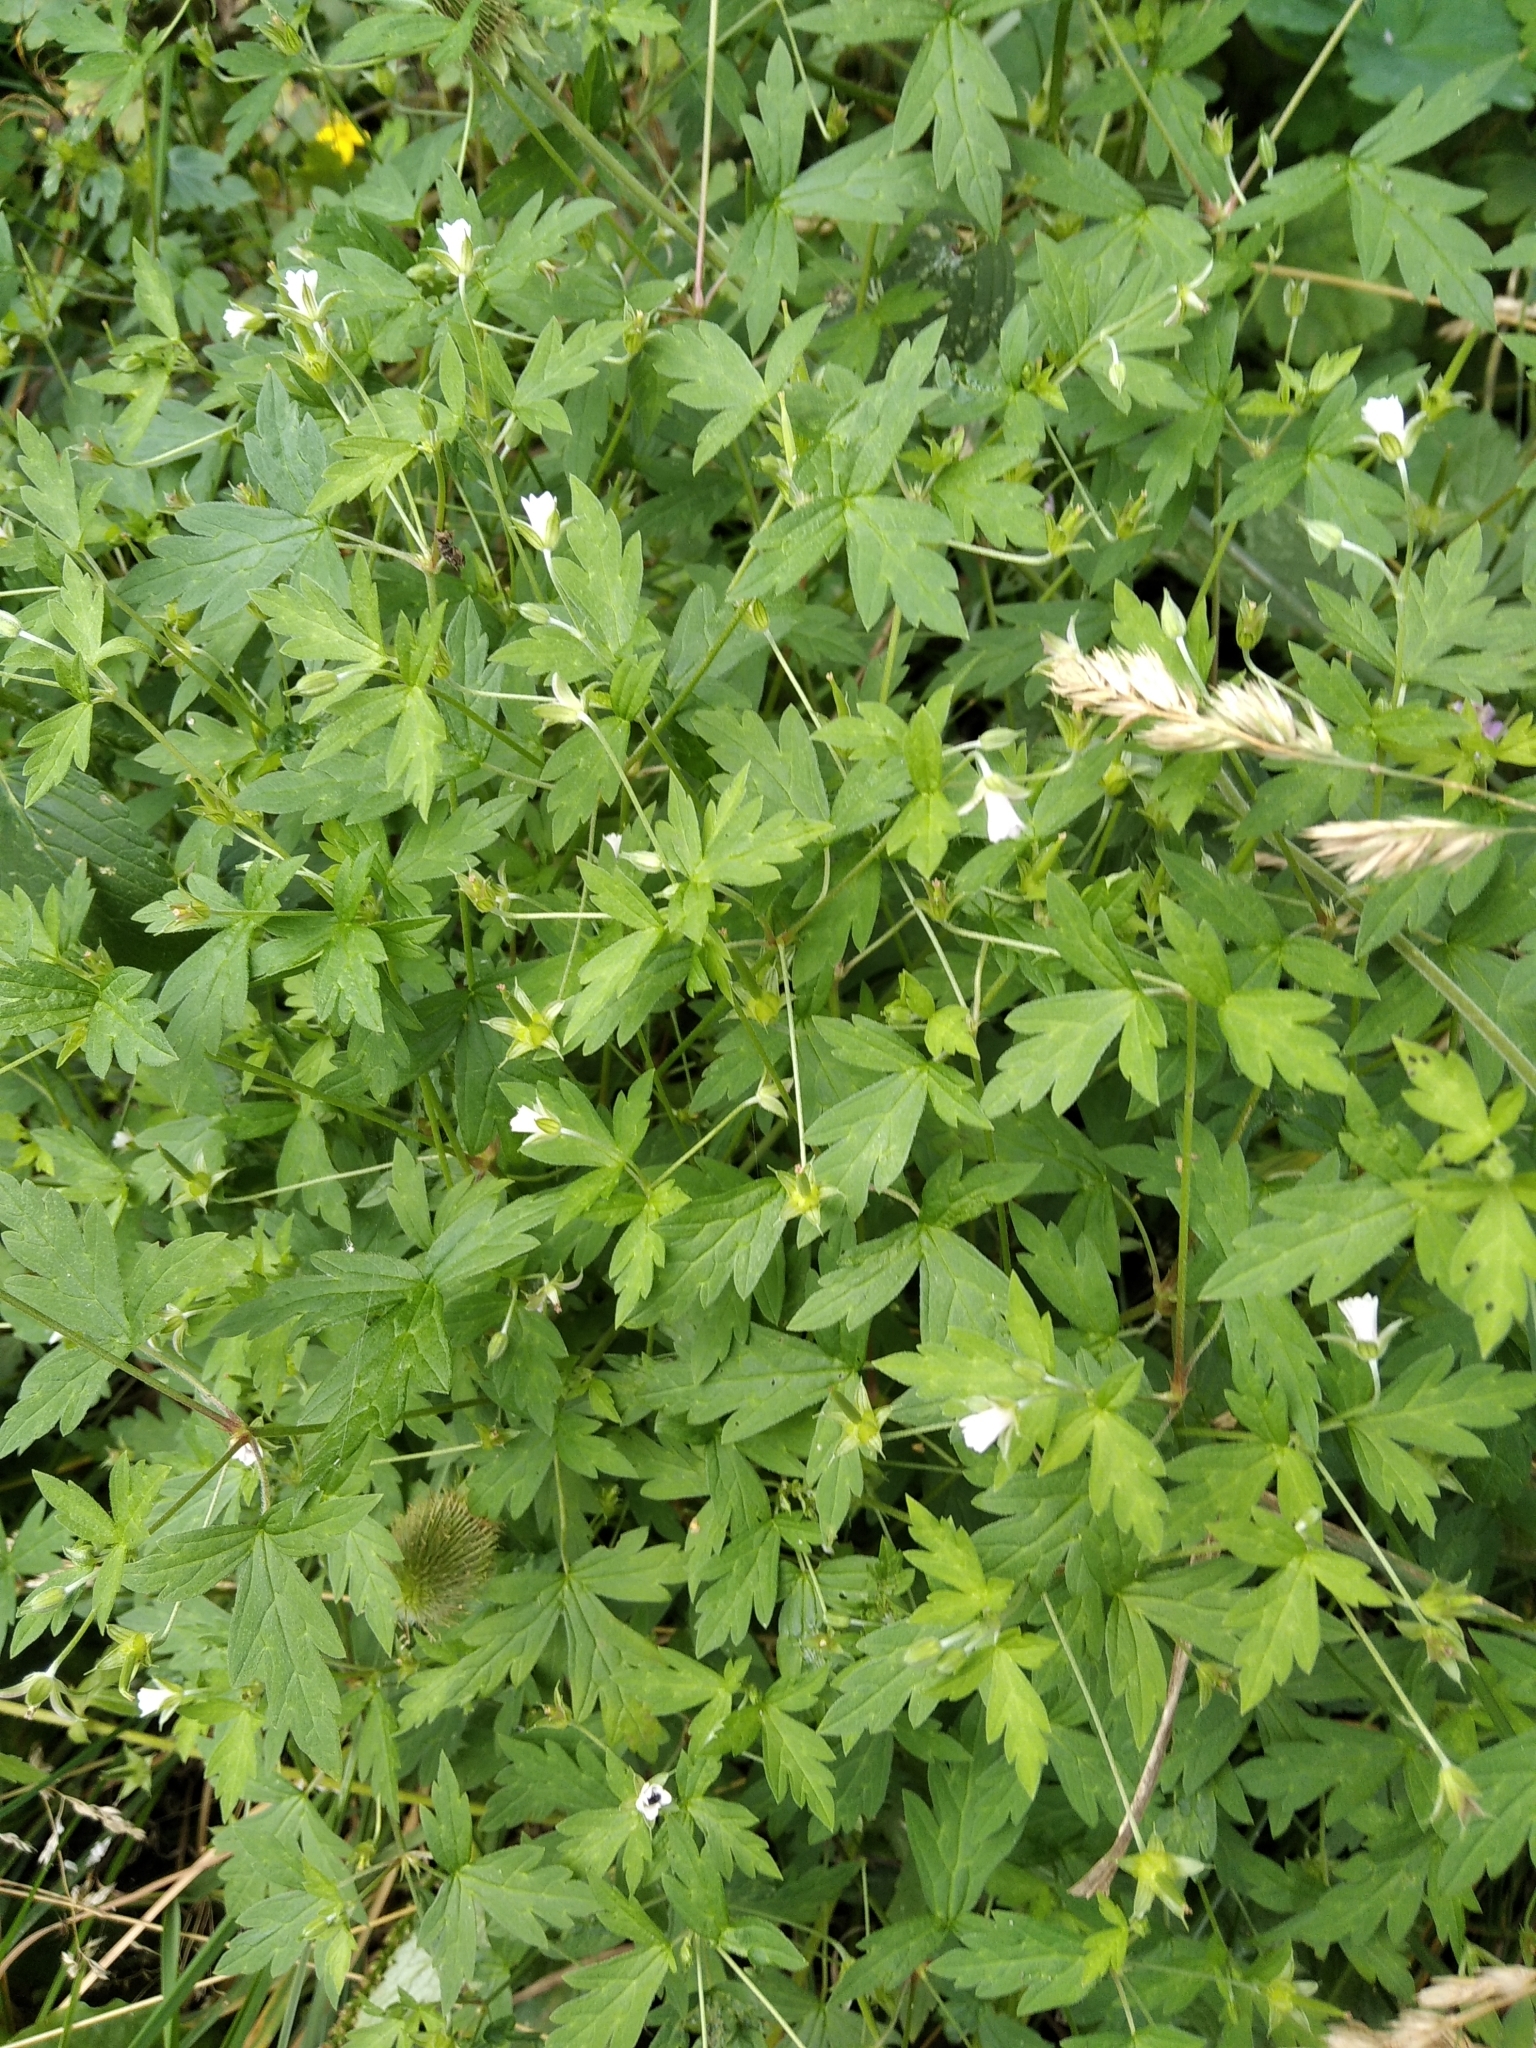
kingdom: Plantae
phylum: Tracheophyta
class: Magnoliopsida
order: Geraniales
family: Geraniaceae
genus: Geranium
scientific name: Geranium sibiricum
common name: Siberian crane's-bill
